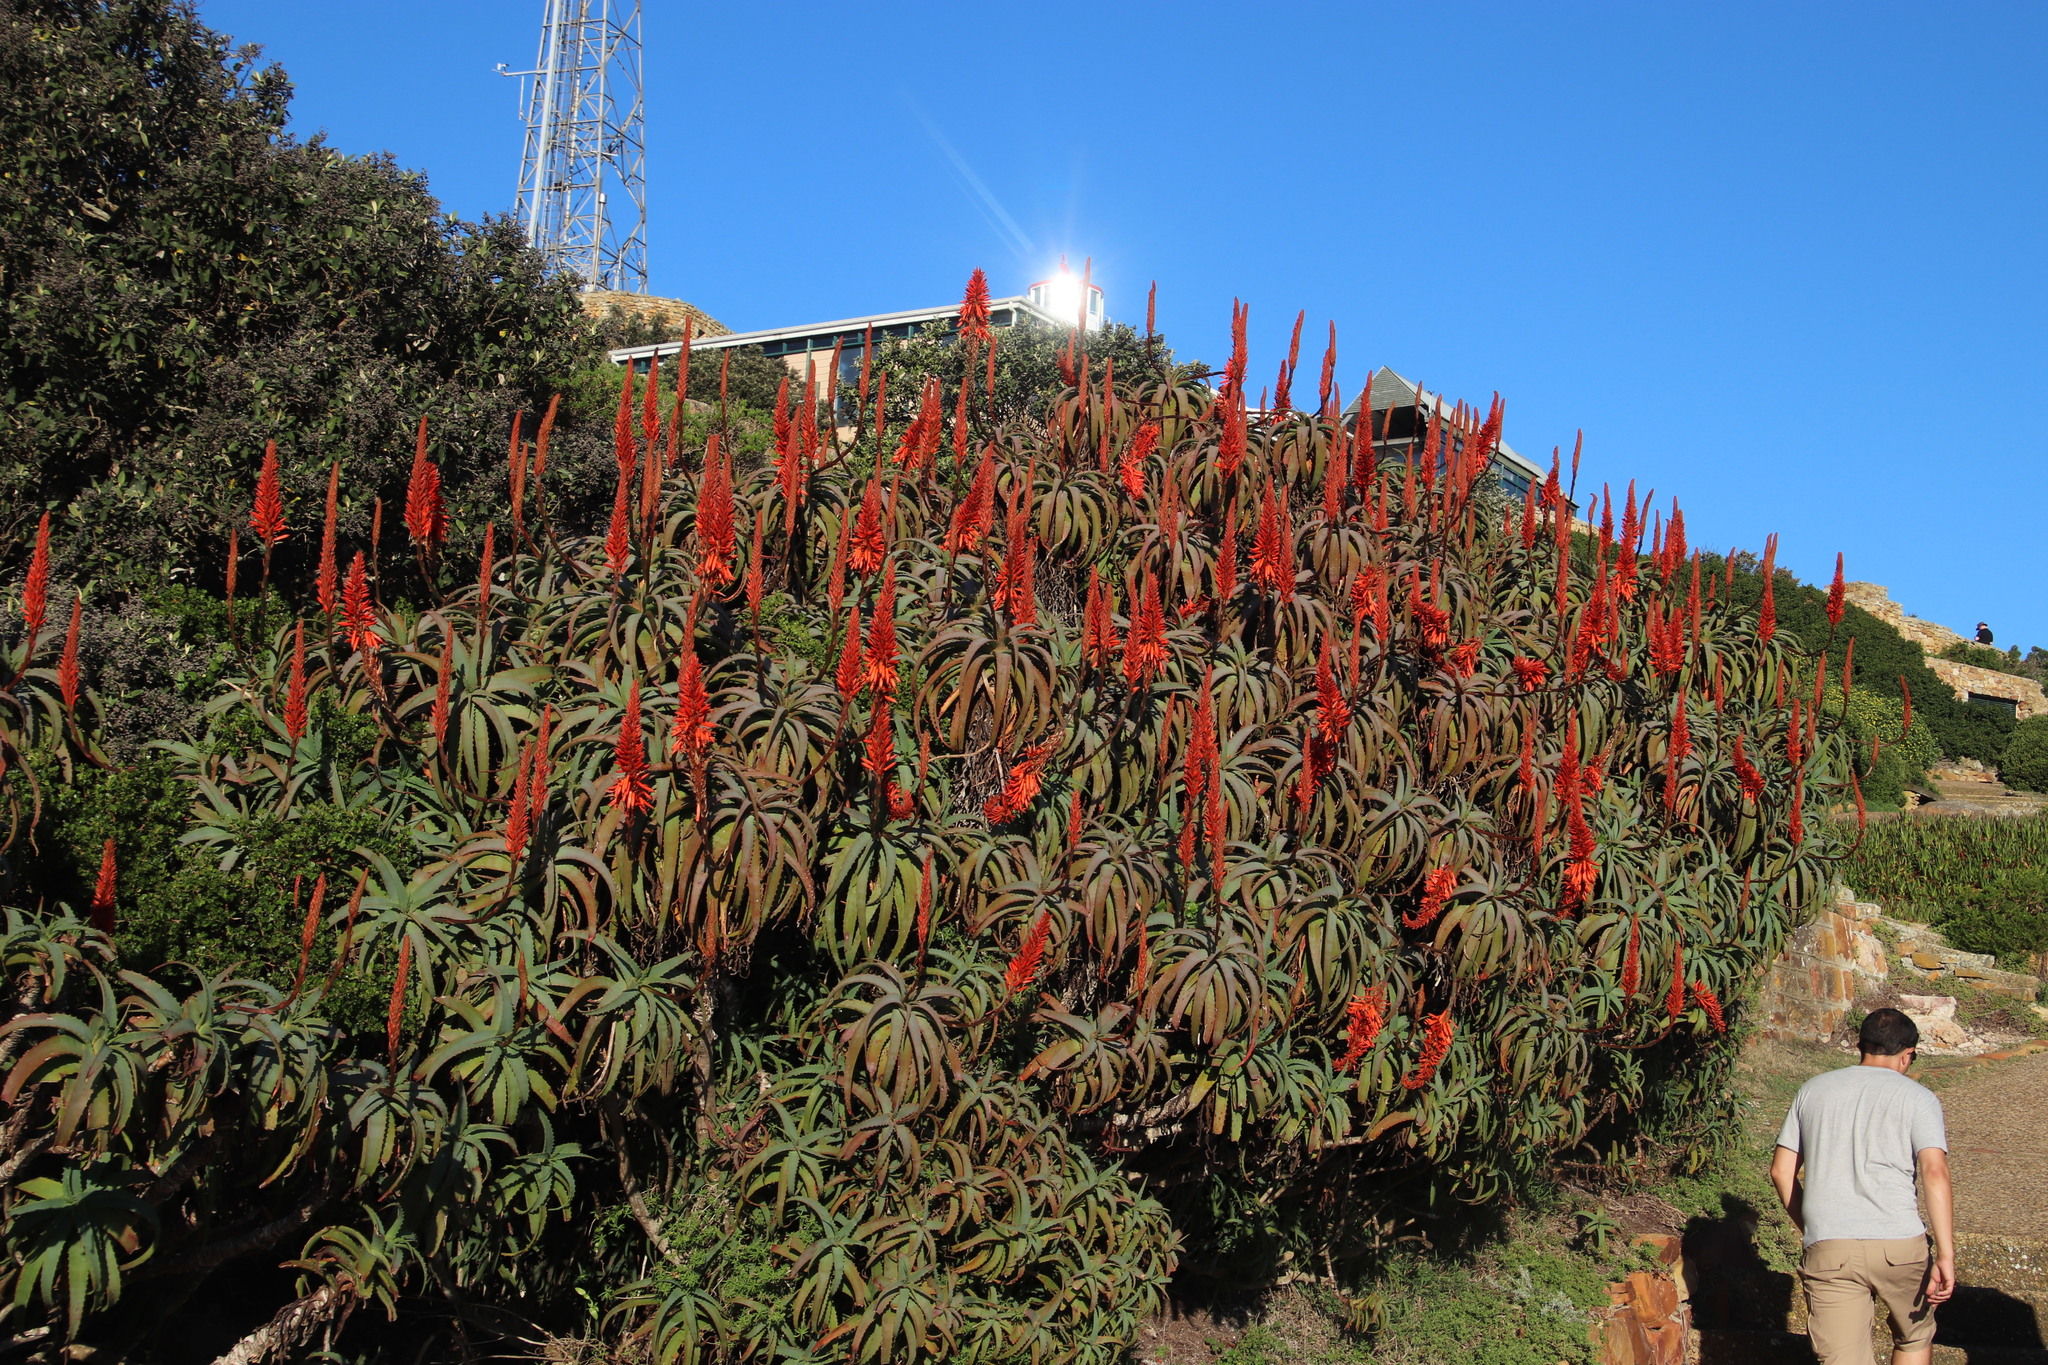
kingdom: Plantae
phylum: Tracheophyta
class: Liliopsida
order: Asparagales
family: Asphodelaceae
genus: Aloe
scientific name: Aloe arborescens
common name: Candelabra aloe
